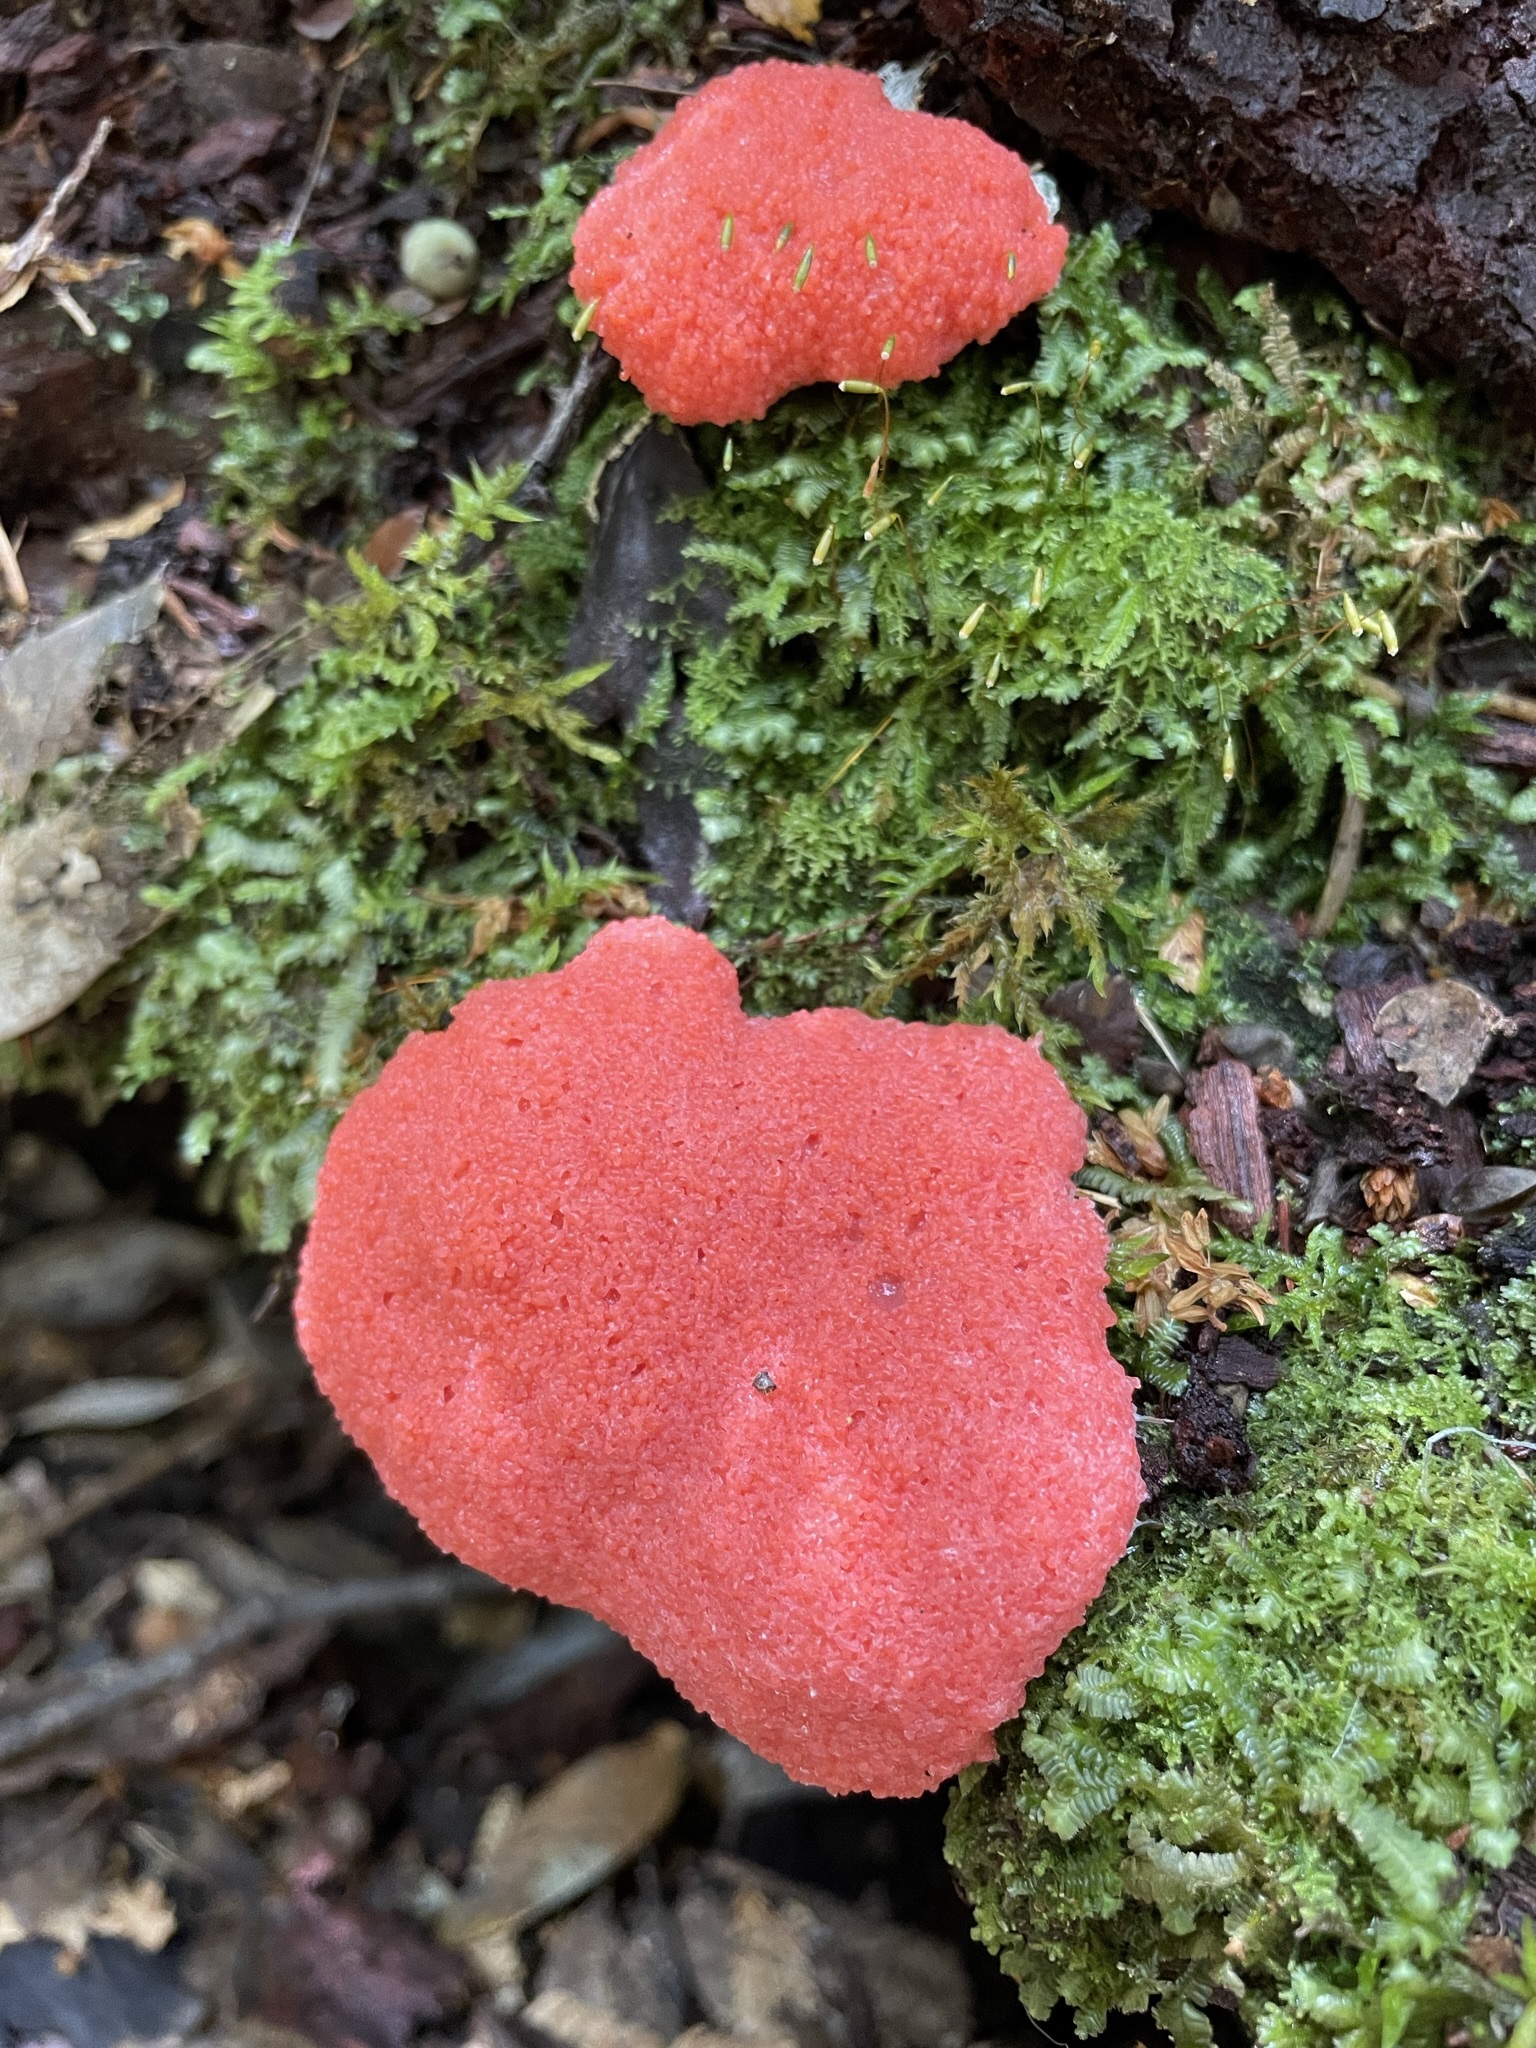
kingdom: Protozoa
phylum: Mycetozoa
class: Myxomycetes
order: Cribrariales
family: Tubiferaceae
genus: Tubifera
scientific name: Tubifera ferruginosa
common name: Red raspberry slime mold
